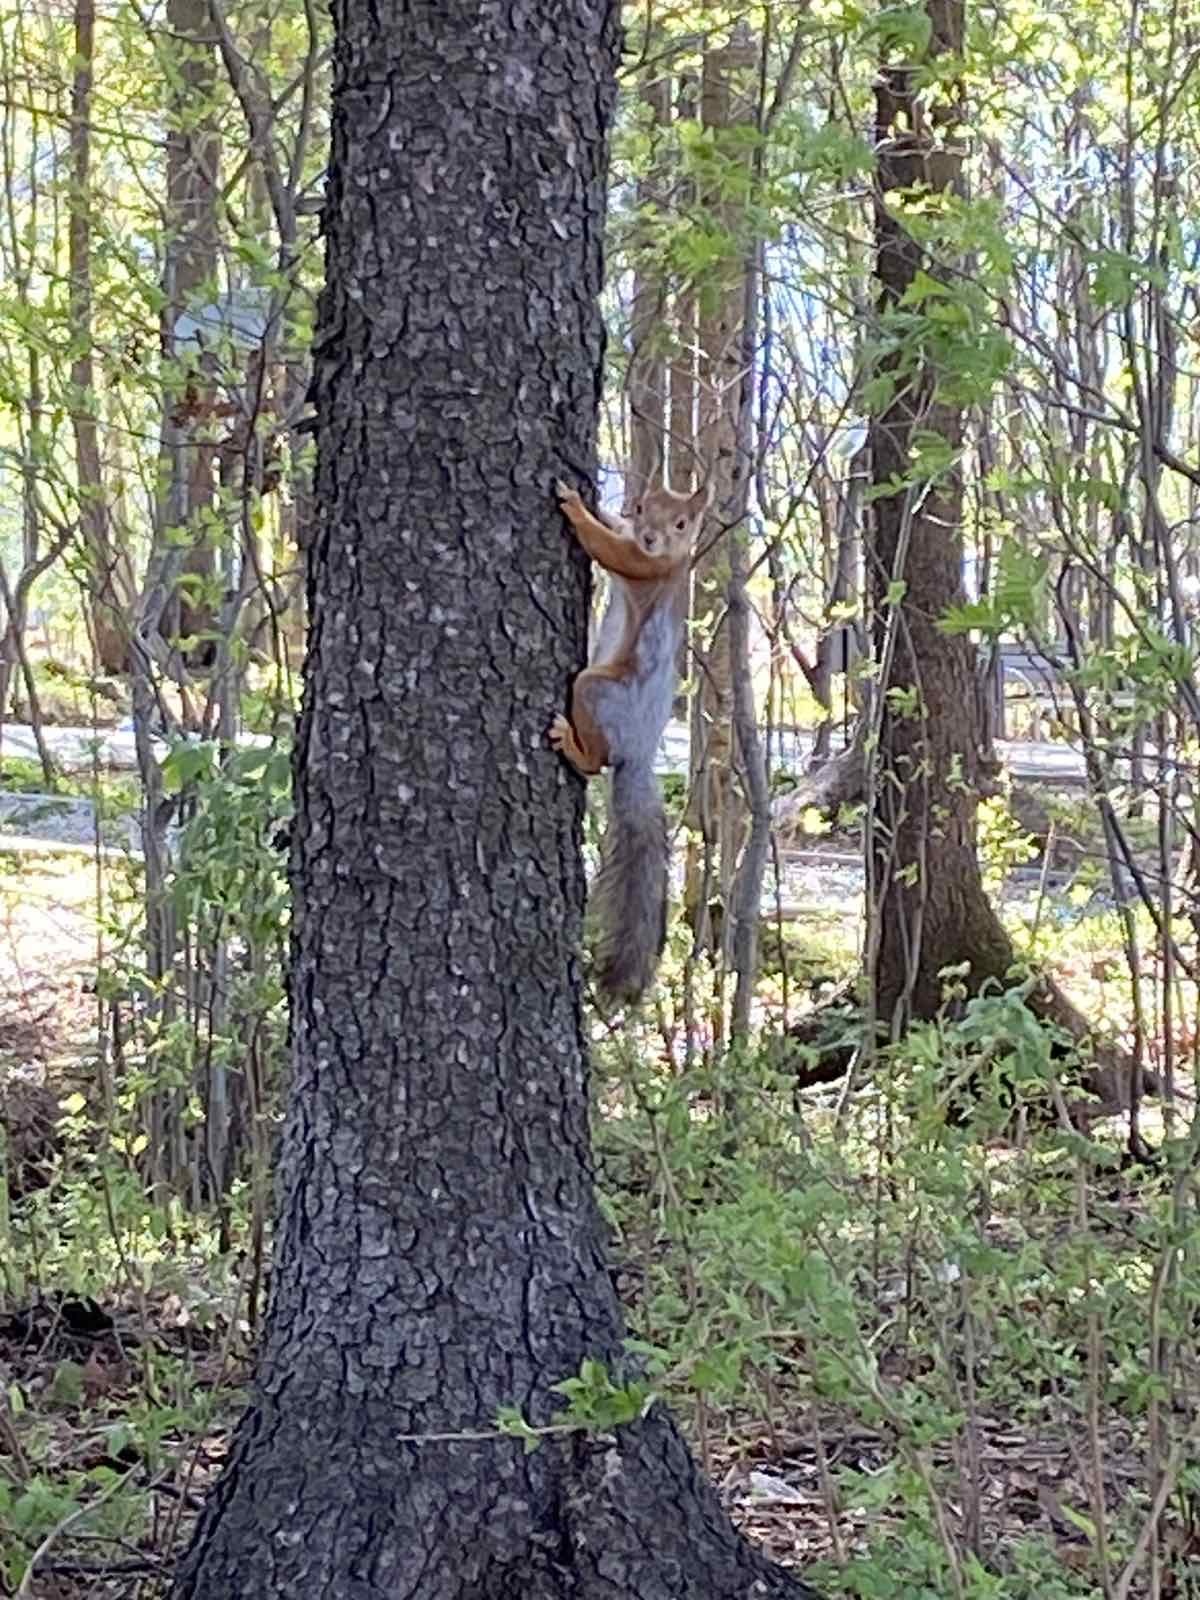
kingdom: Animalia
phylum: Chordata
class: Mammalia
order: Rodentia
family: Sciuridae
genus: Sciurus
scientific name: Sciurus vulgaris
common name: Eurasian red squirrel
